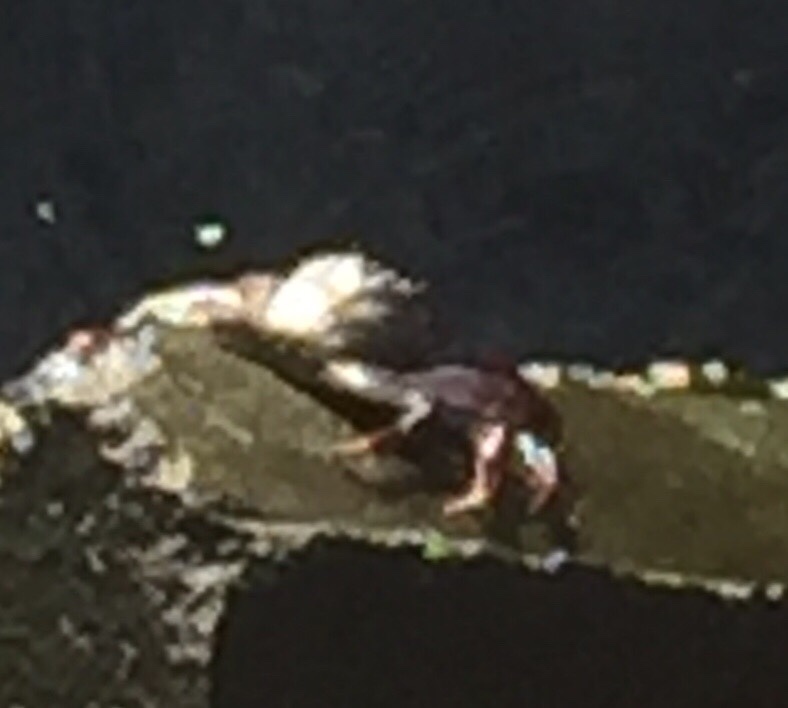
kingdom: Animalia
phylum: Arthropoda
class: Malacostraca
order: Decapoda
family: Grapsidae
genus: Grapsus
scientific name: Grapsus adscensionis
